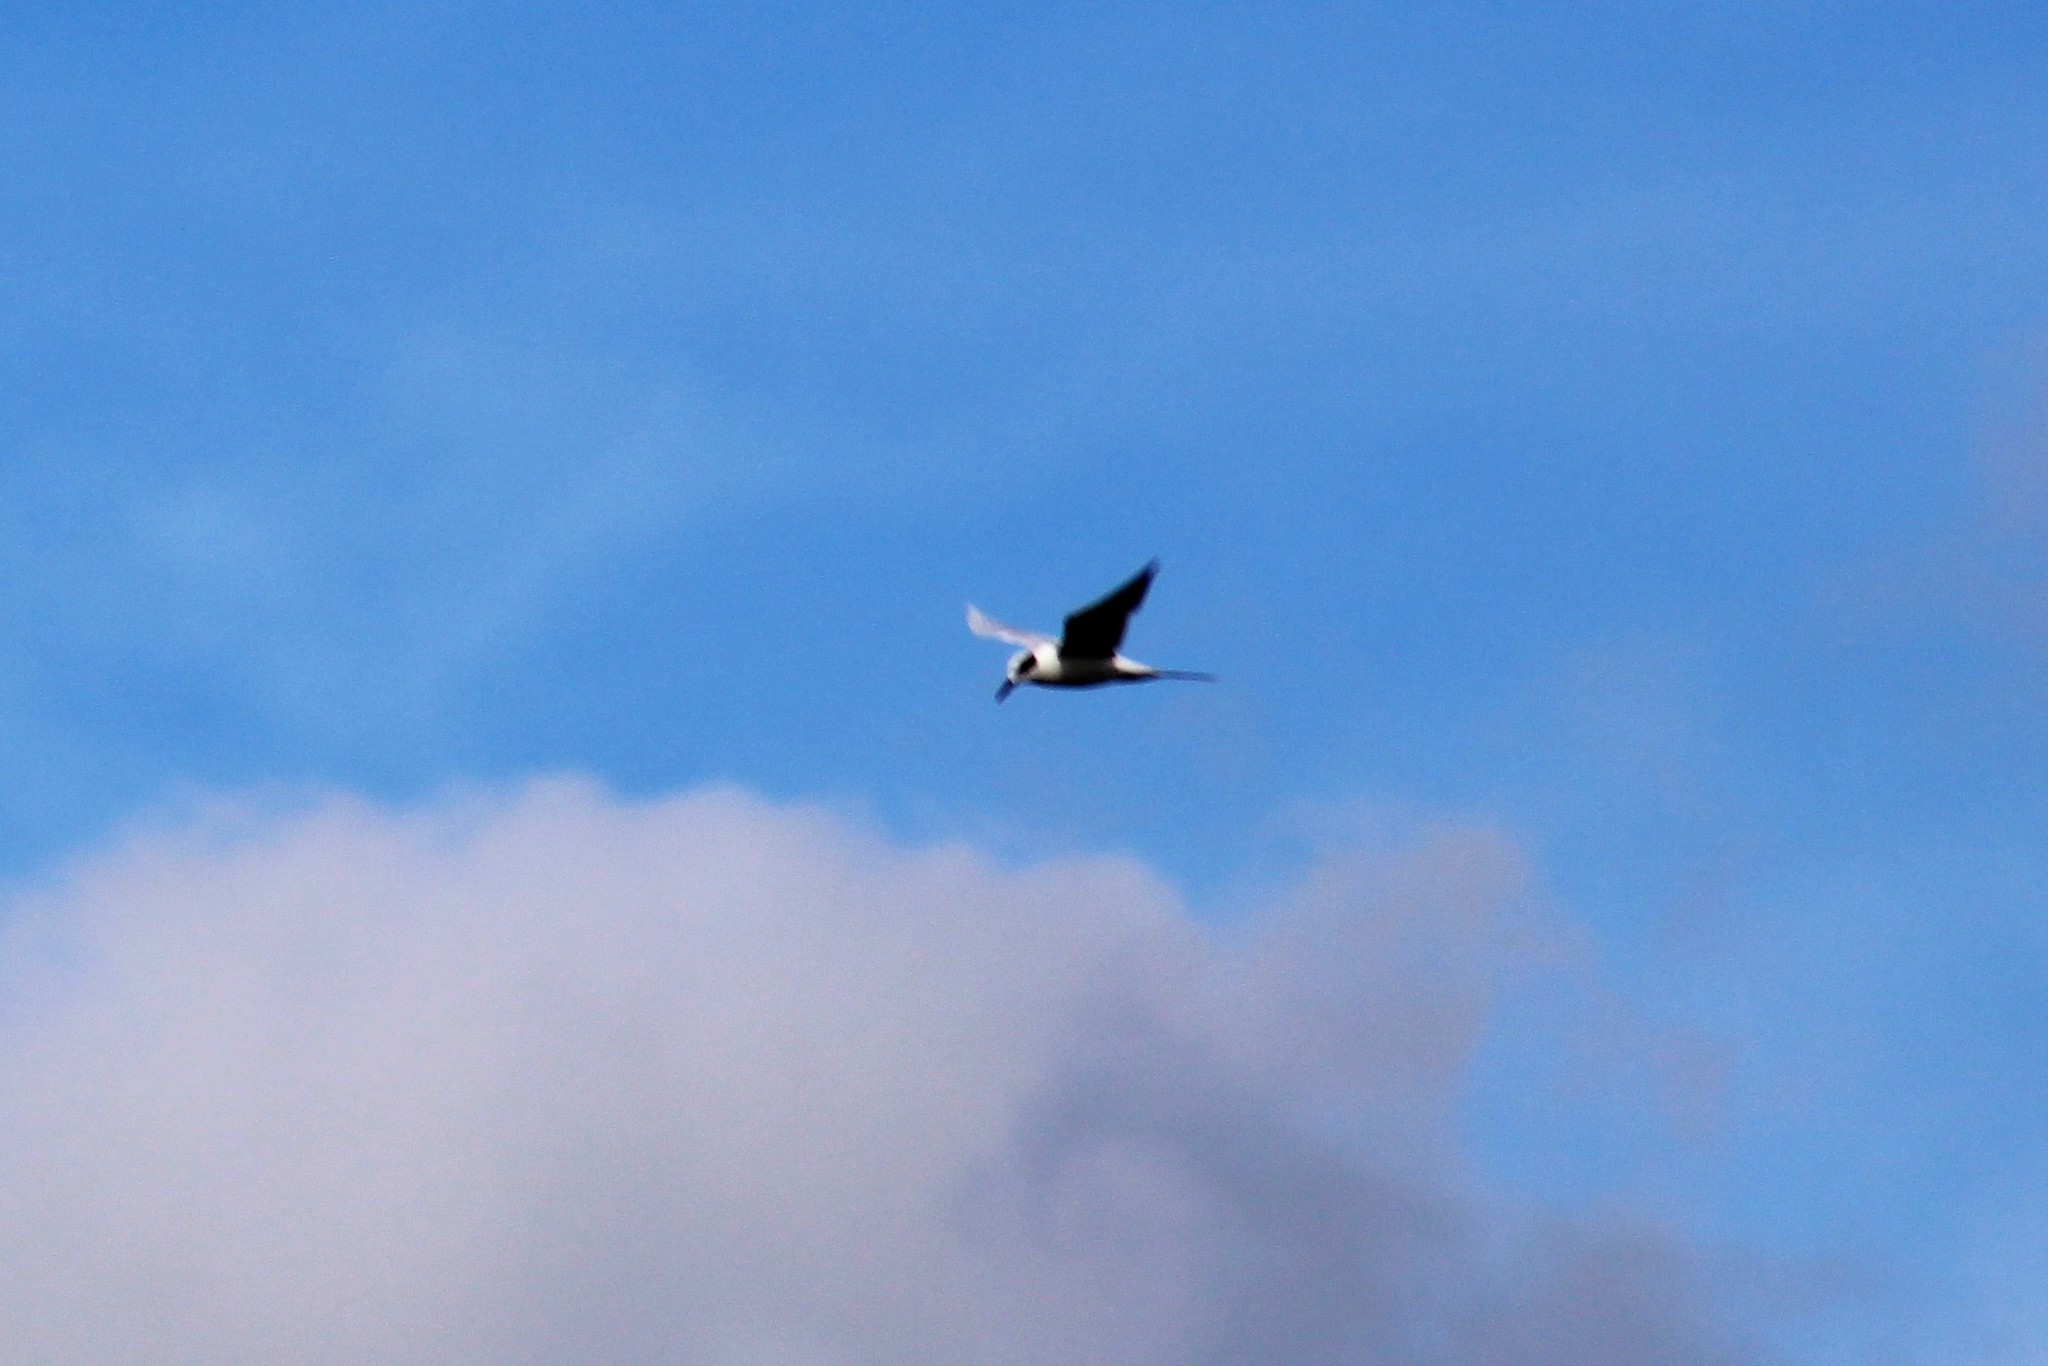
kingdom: Animalia
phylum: Chordata
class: Aves
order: Charadriiformes
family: Laridae
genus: Sterna
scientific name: Sterna forsteri
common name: Forster's tern
